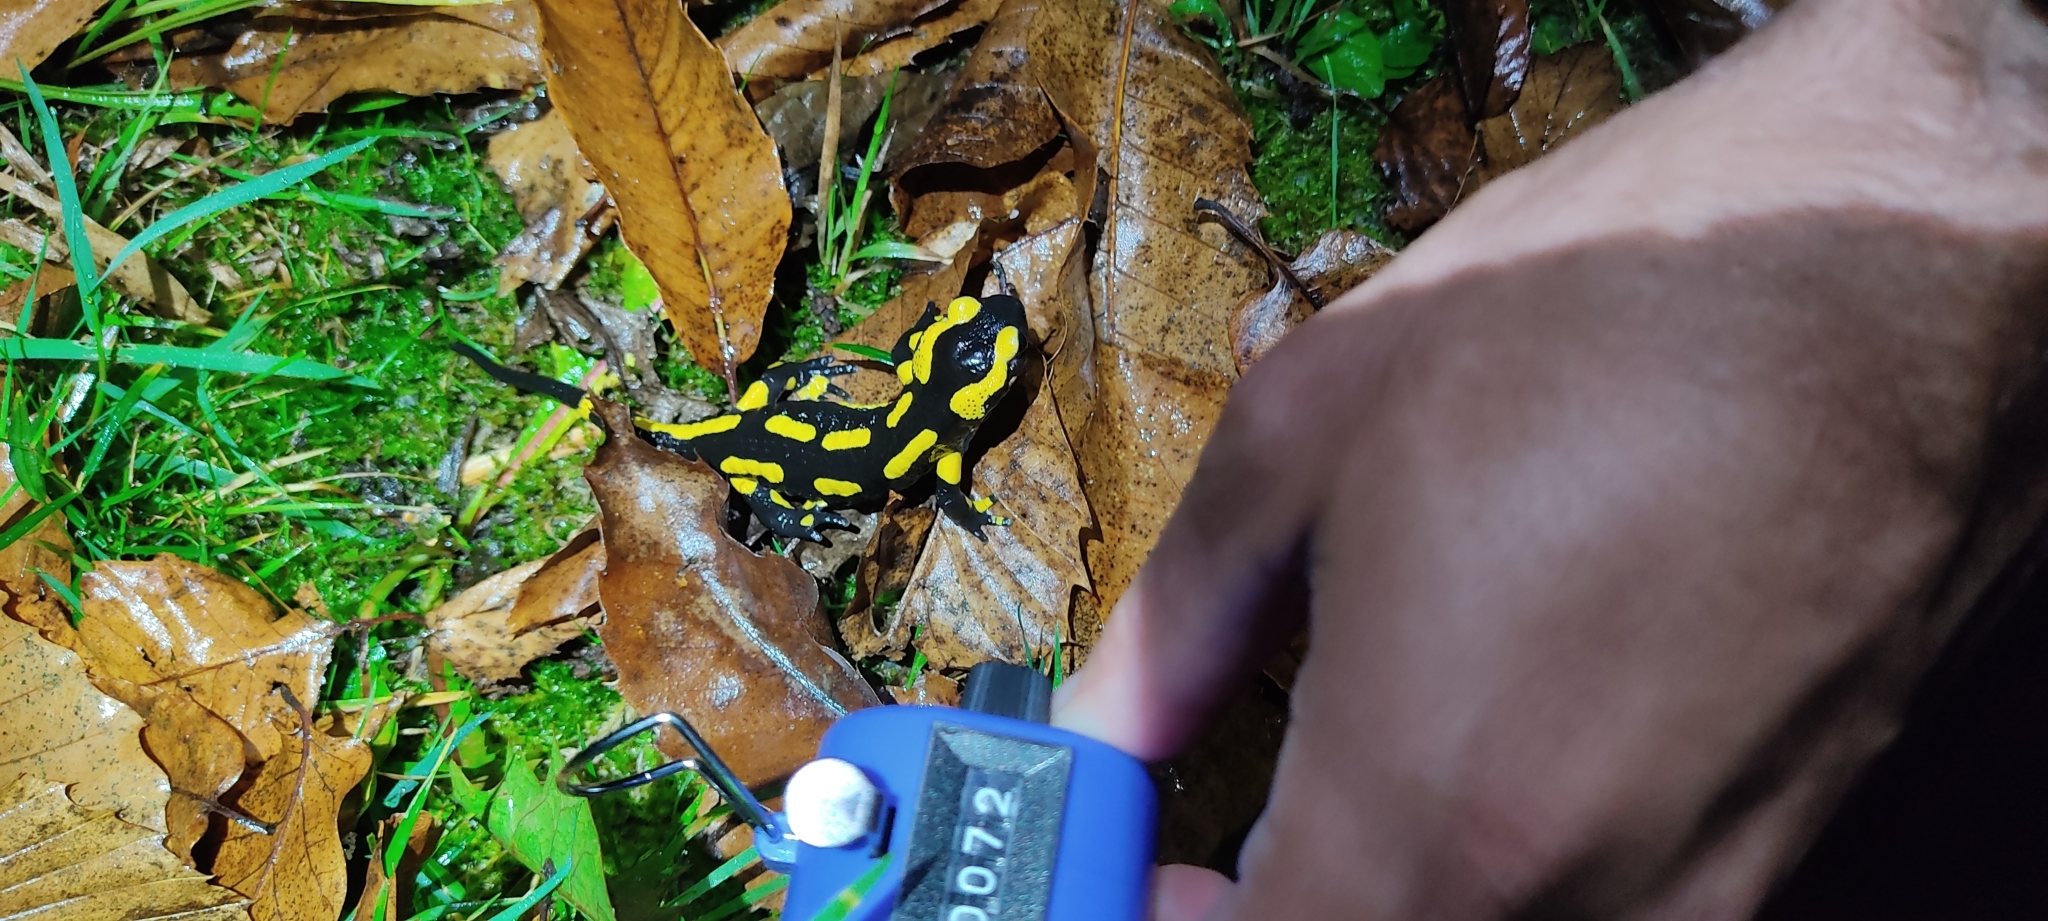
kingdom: Animalia
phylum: Chordata
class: Amphibia
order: Caudata
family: Salamandridae
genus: Salamandra
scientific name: Salamandra salamandra
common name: Fire salamander
